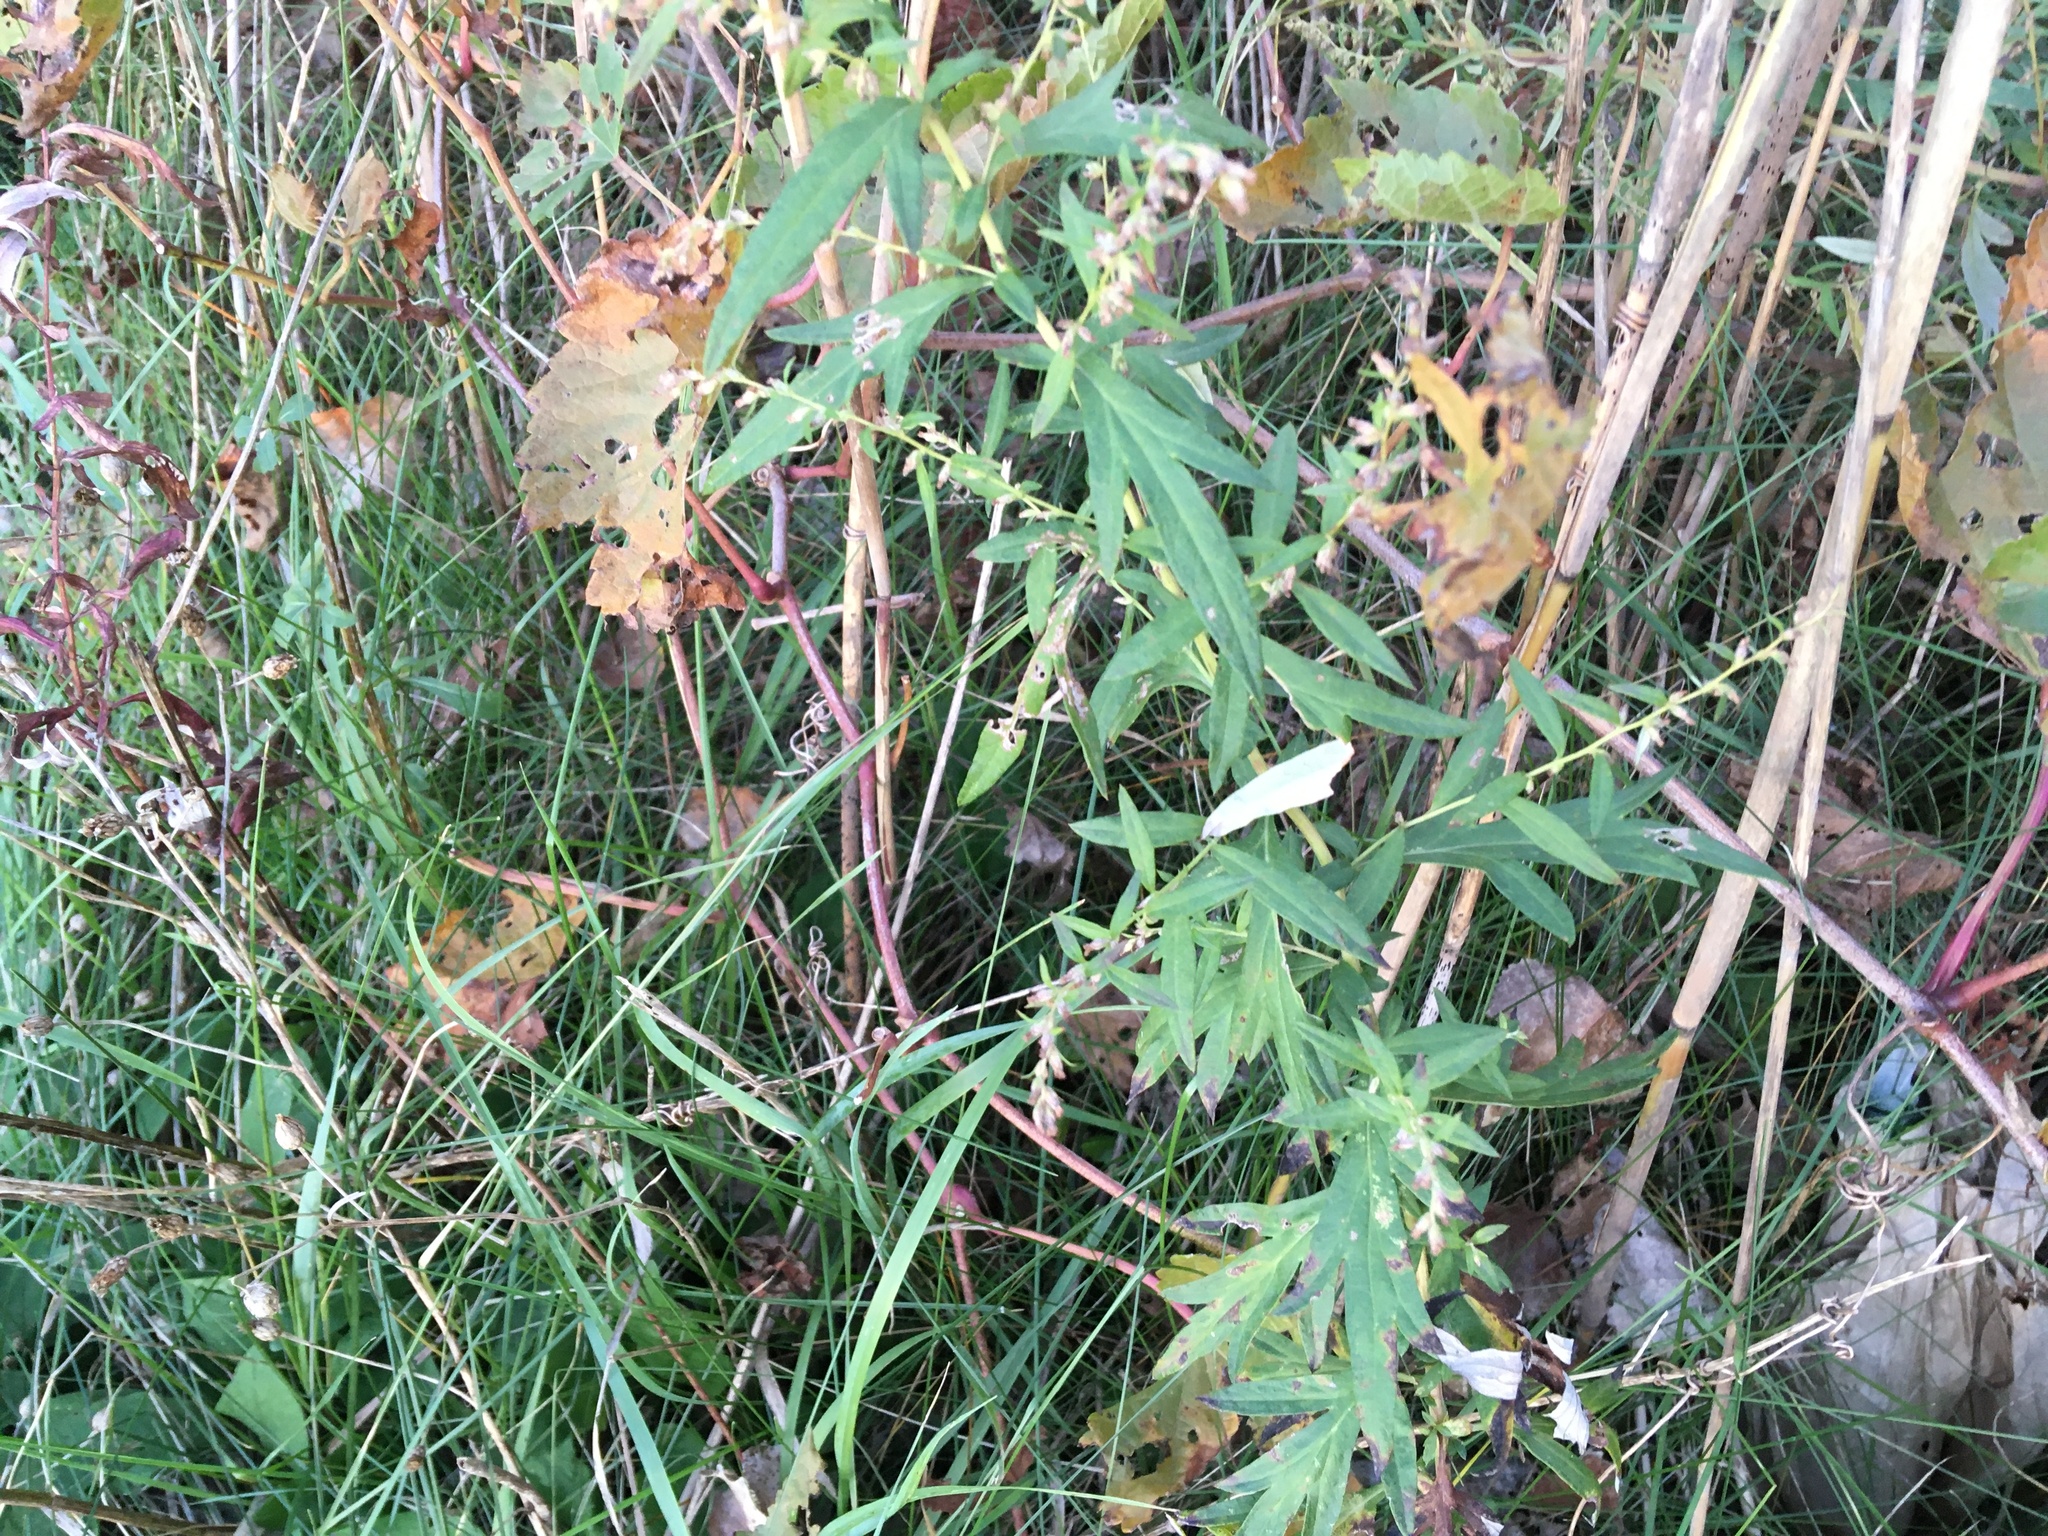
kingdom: Plantae
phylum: Tracheophyta
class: Magnoliopsida
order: Asterales
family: Asteraceae
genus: Artemisia
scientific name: Artemisia vulgaris
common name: Mugwort
